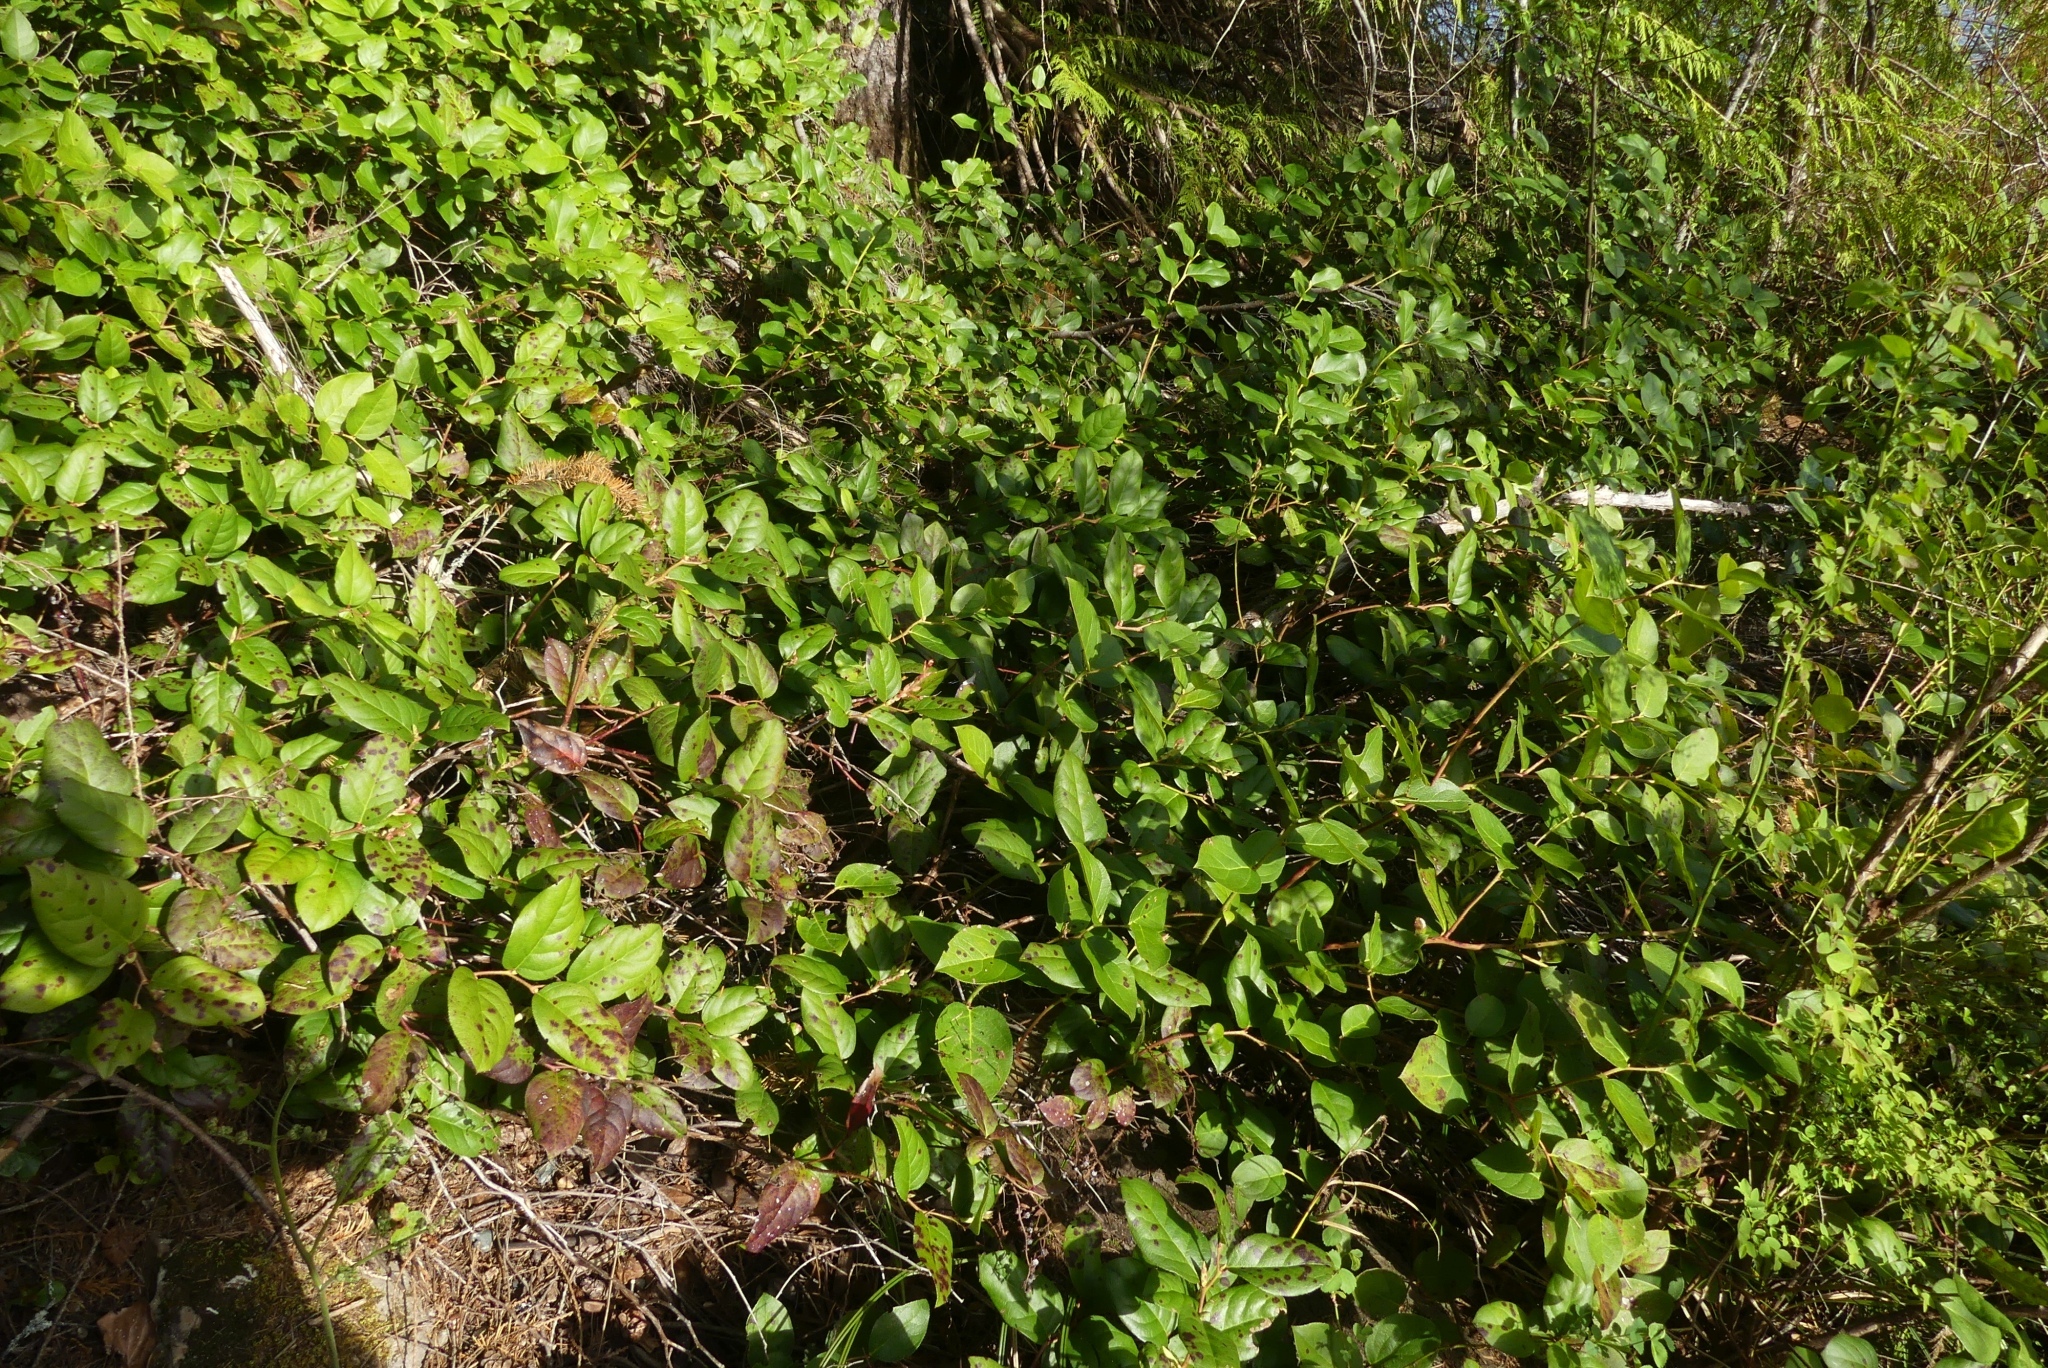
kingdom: Plantae
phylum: Tracheophyta
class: Magnoliopsida
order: Ericales
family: Ericaceae
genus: Gaultheria
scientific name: Gaultheria shallon
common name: Shallon
